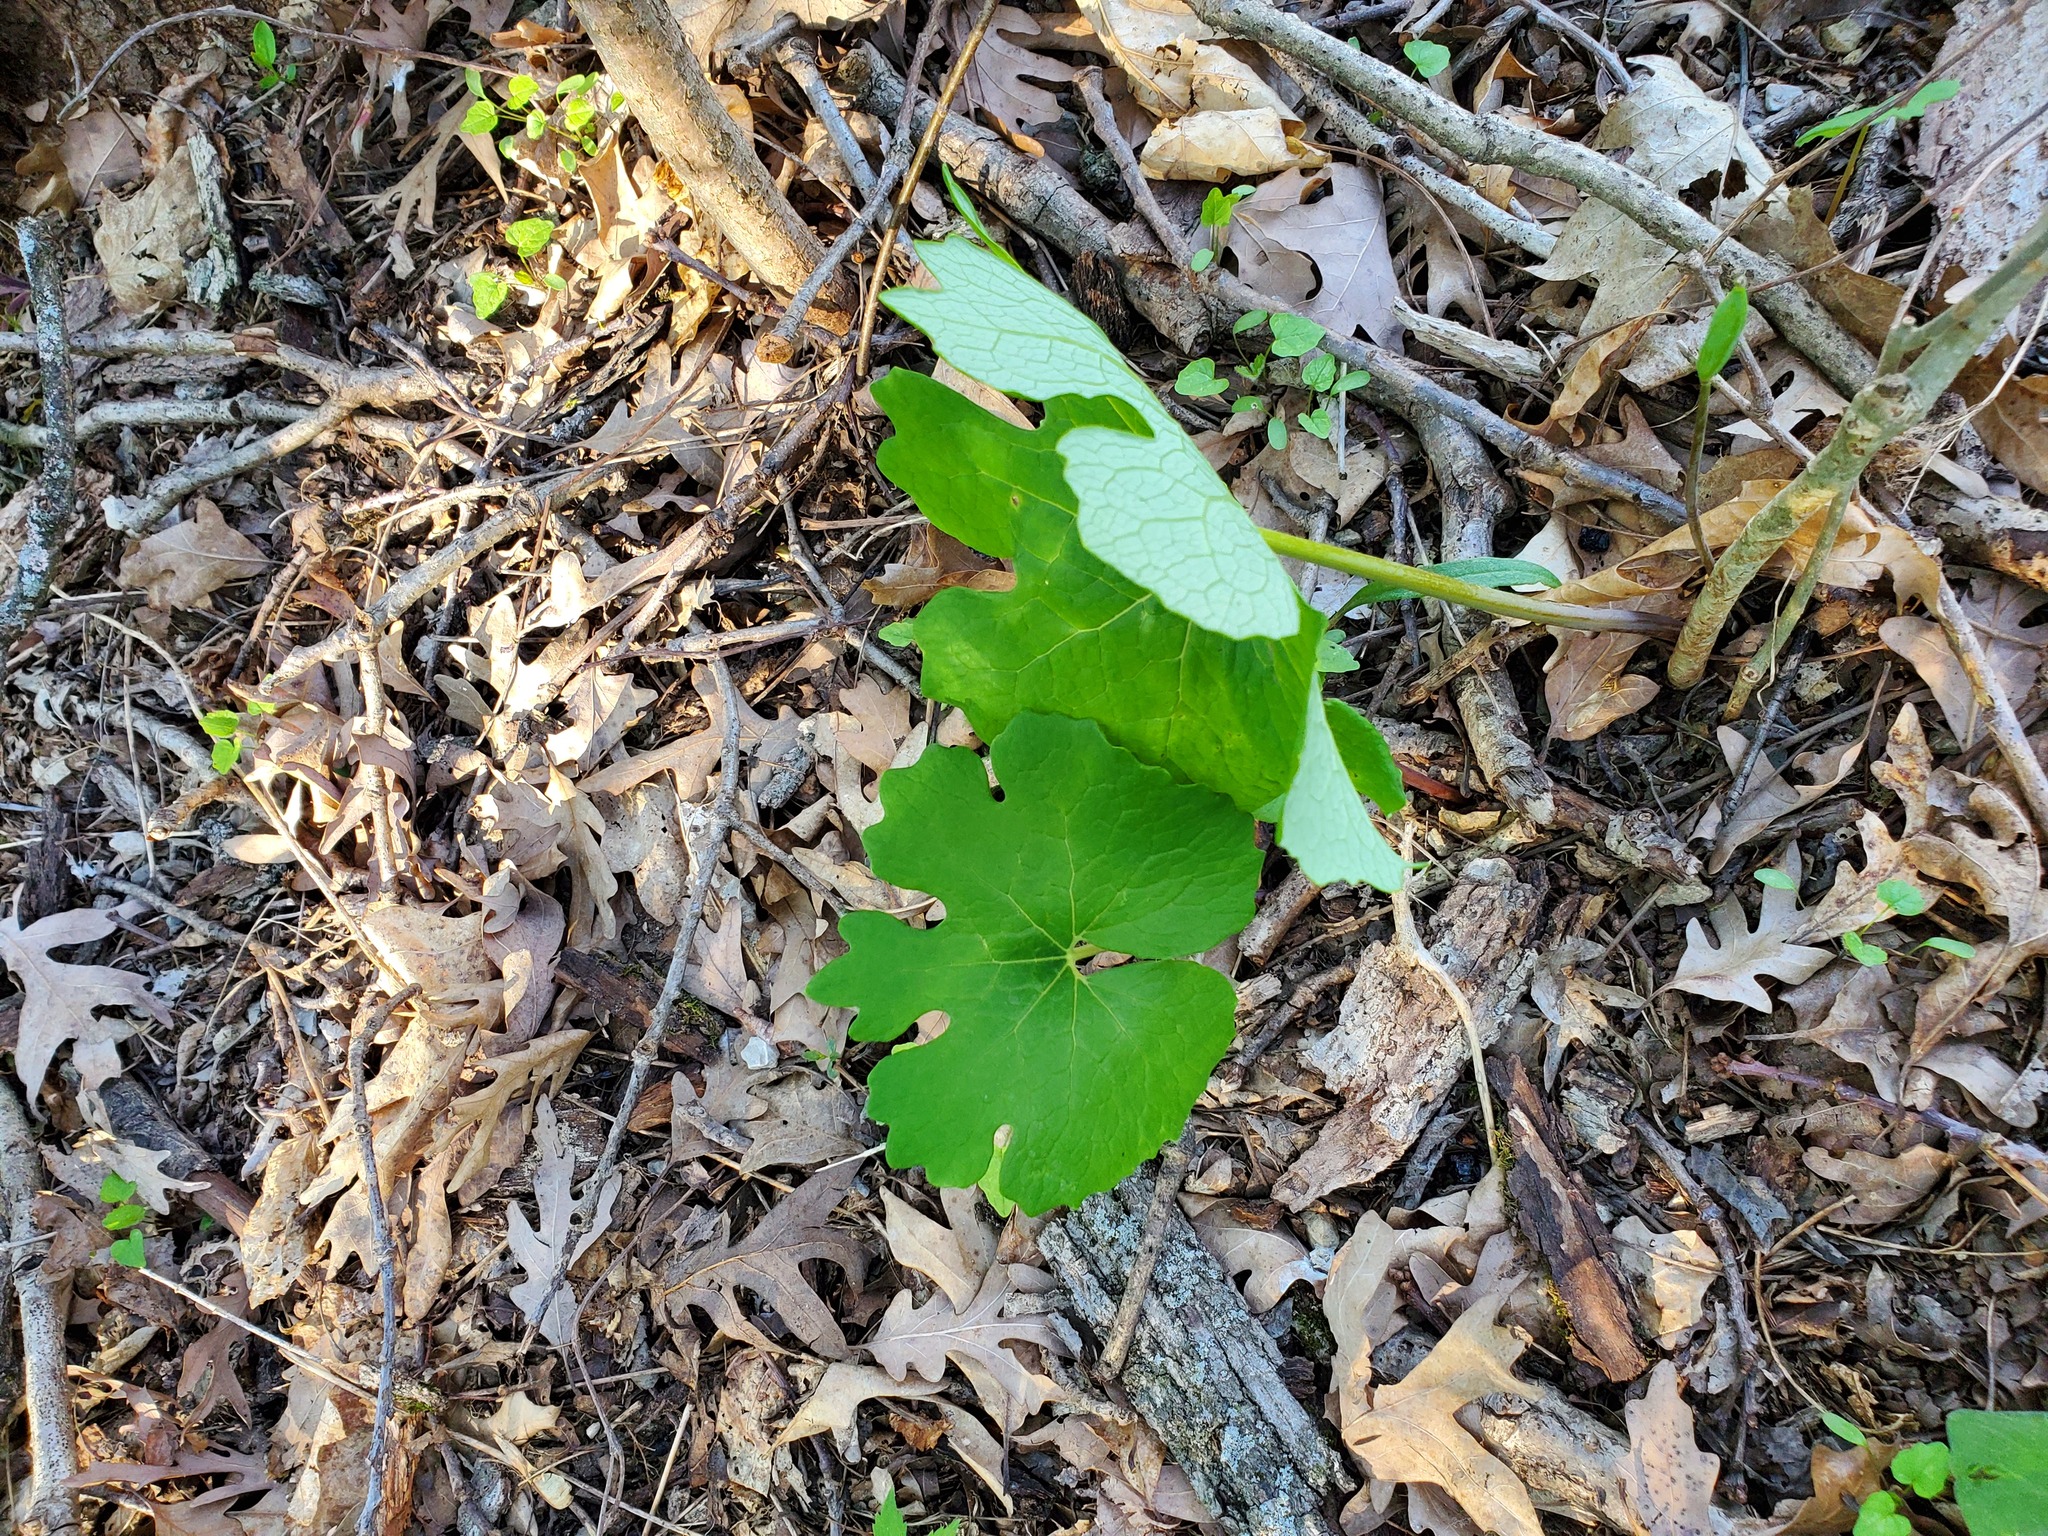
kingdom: Plantae
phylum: Tracheophyta
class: Magnoliopsida
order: Ranunculales
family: Papaveraceae
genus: Sanguinaria
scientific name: Sanguinaria canadensis
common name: Bloodroot
